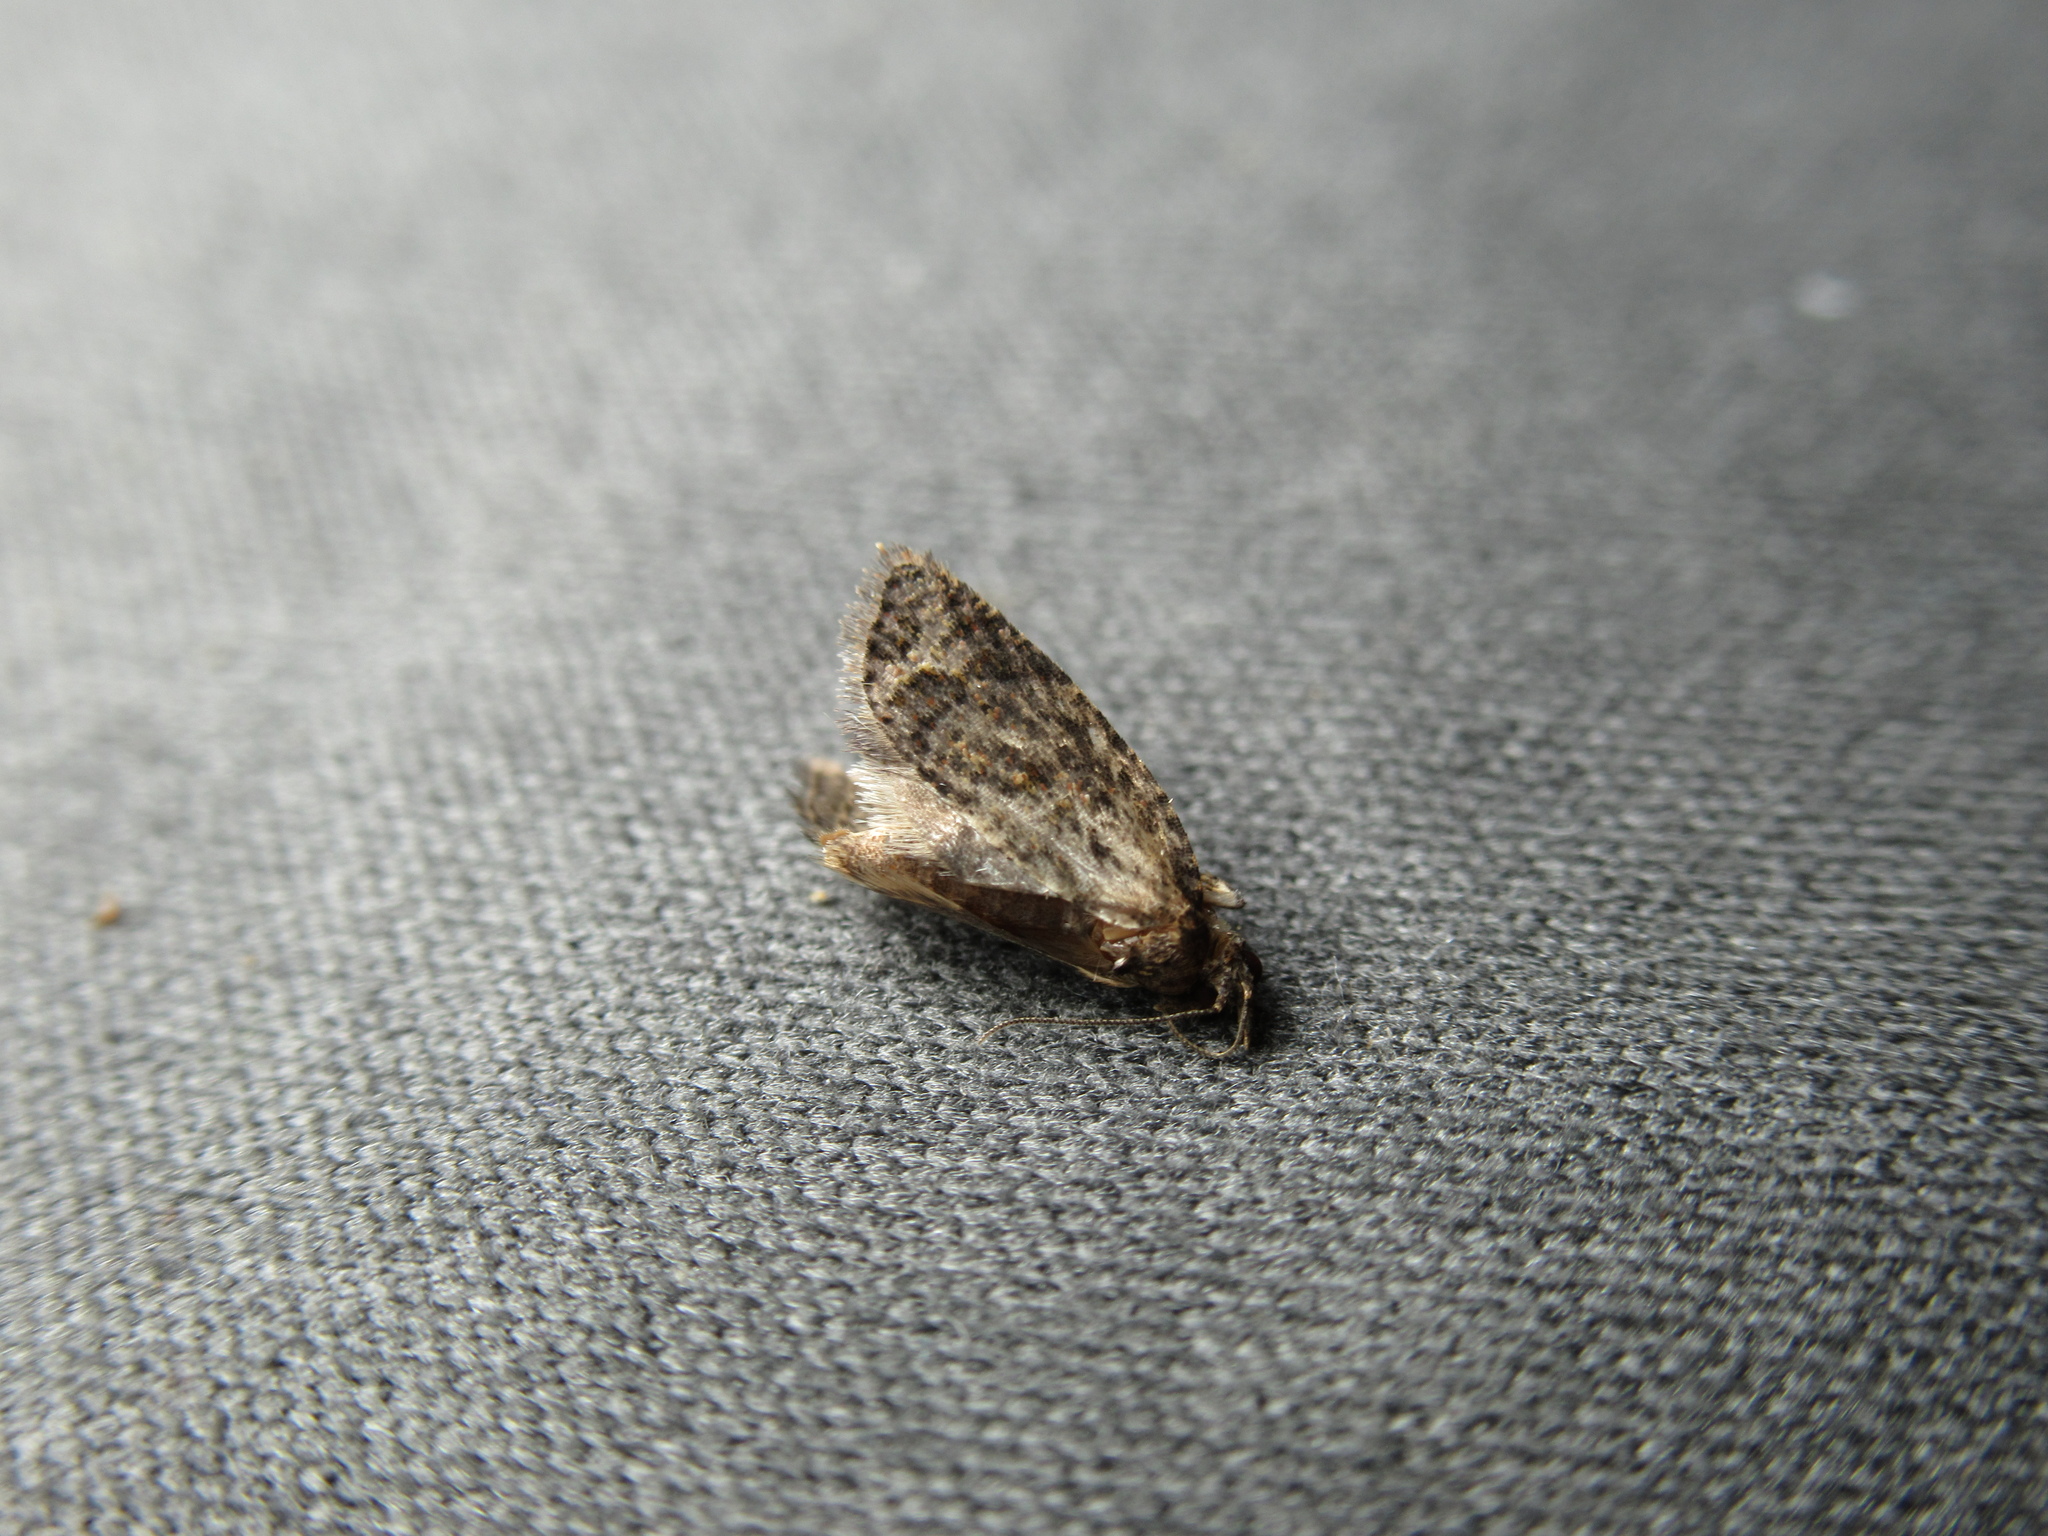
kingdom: Animalia
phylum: Arthropoda
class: Insecta
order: Lepidoptera
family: Tortricidae
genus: Capua
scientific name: Capua intractana
